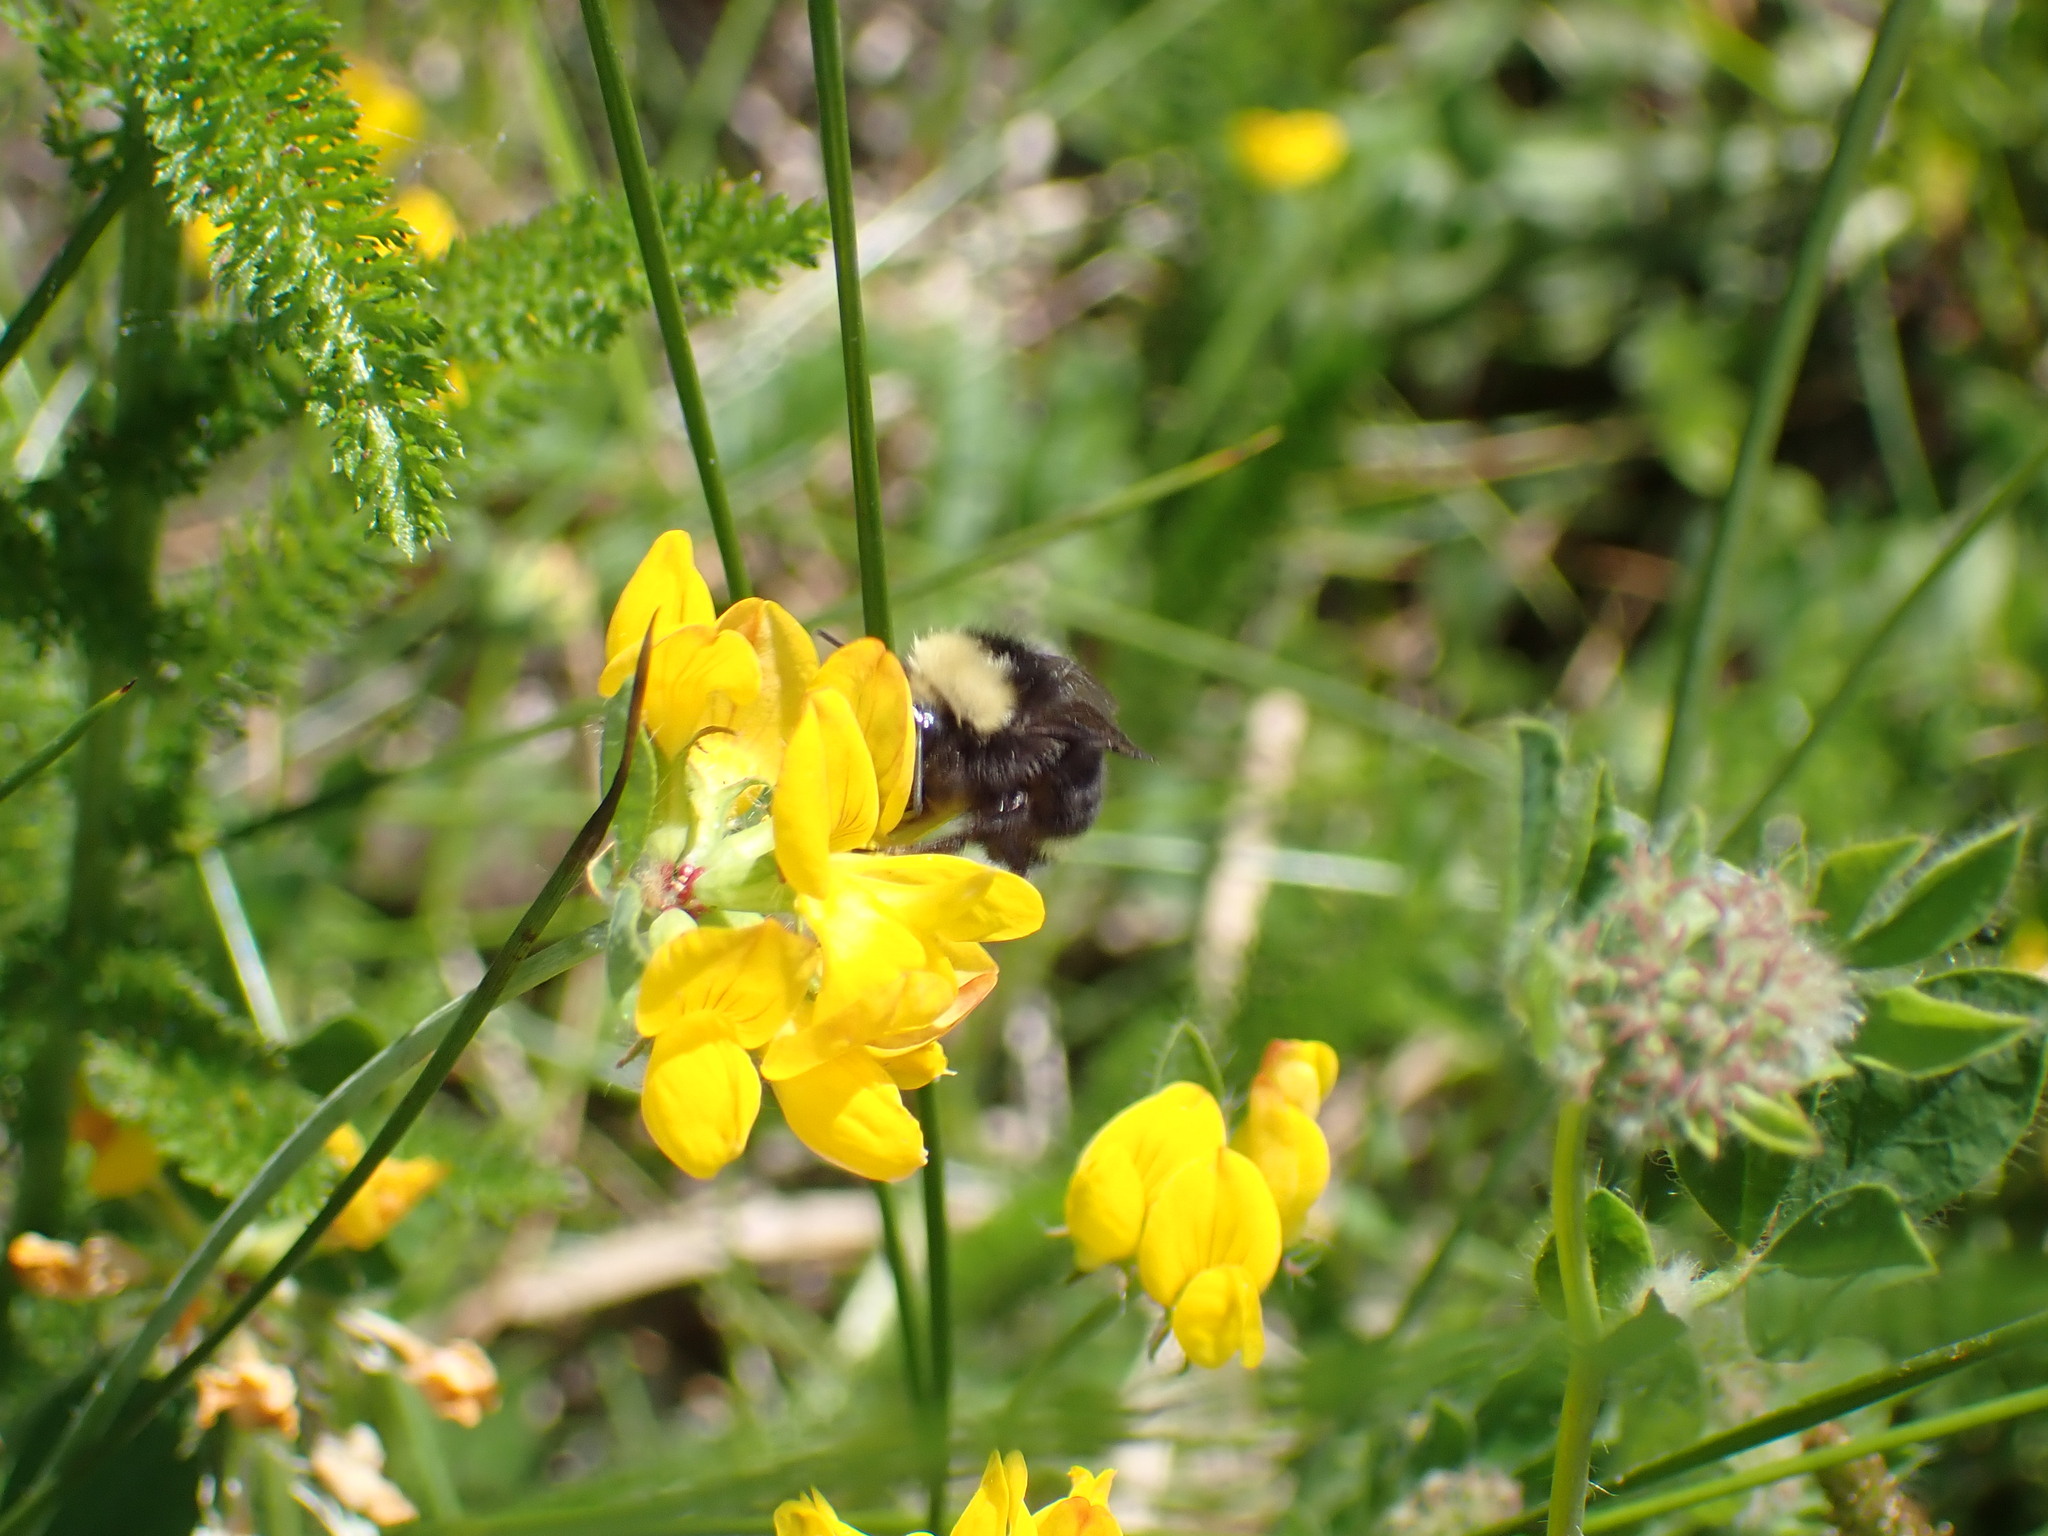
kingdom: Plantae
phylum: Tracheophyta
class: Magnoliopsida
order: Fabales
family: Fabaceae
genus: Lotus
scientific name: Lotus pedunculatus
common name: Greater birdsfoot-trefoil
